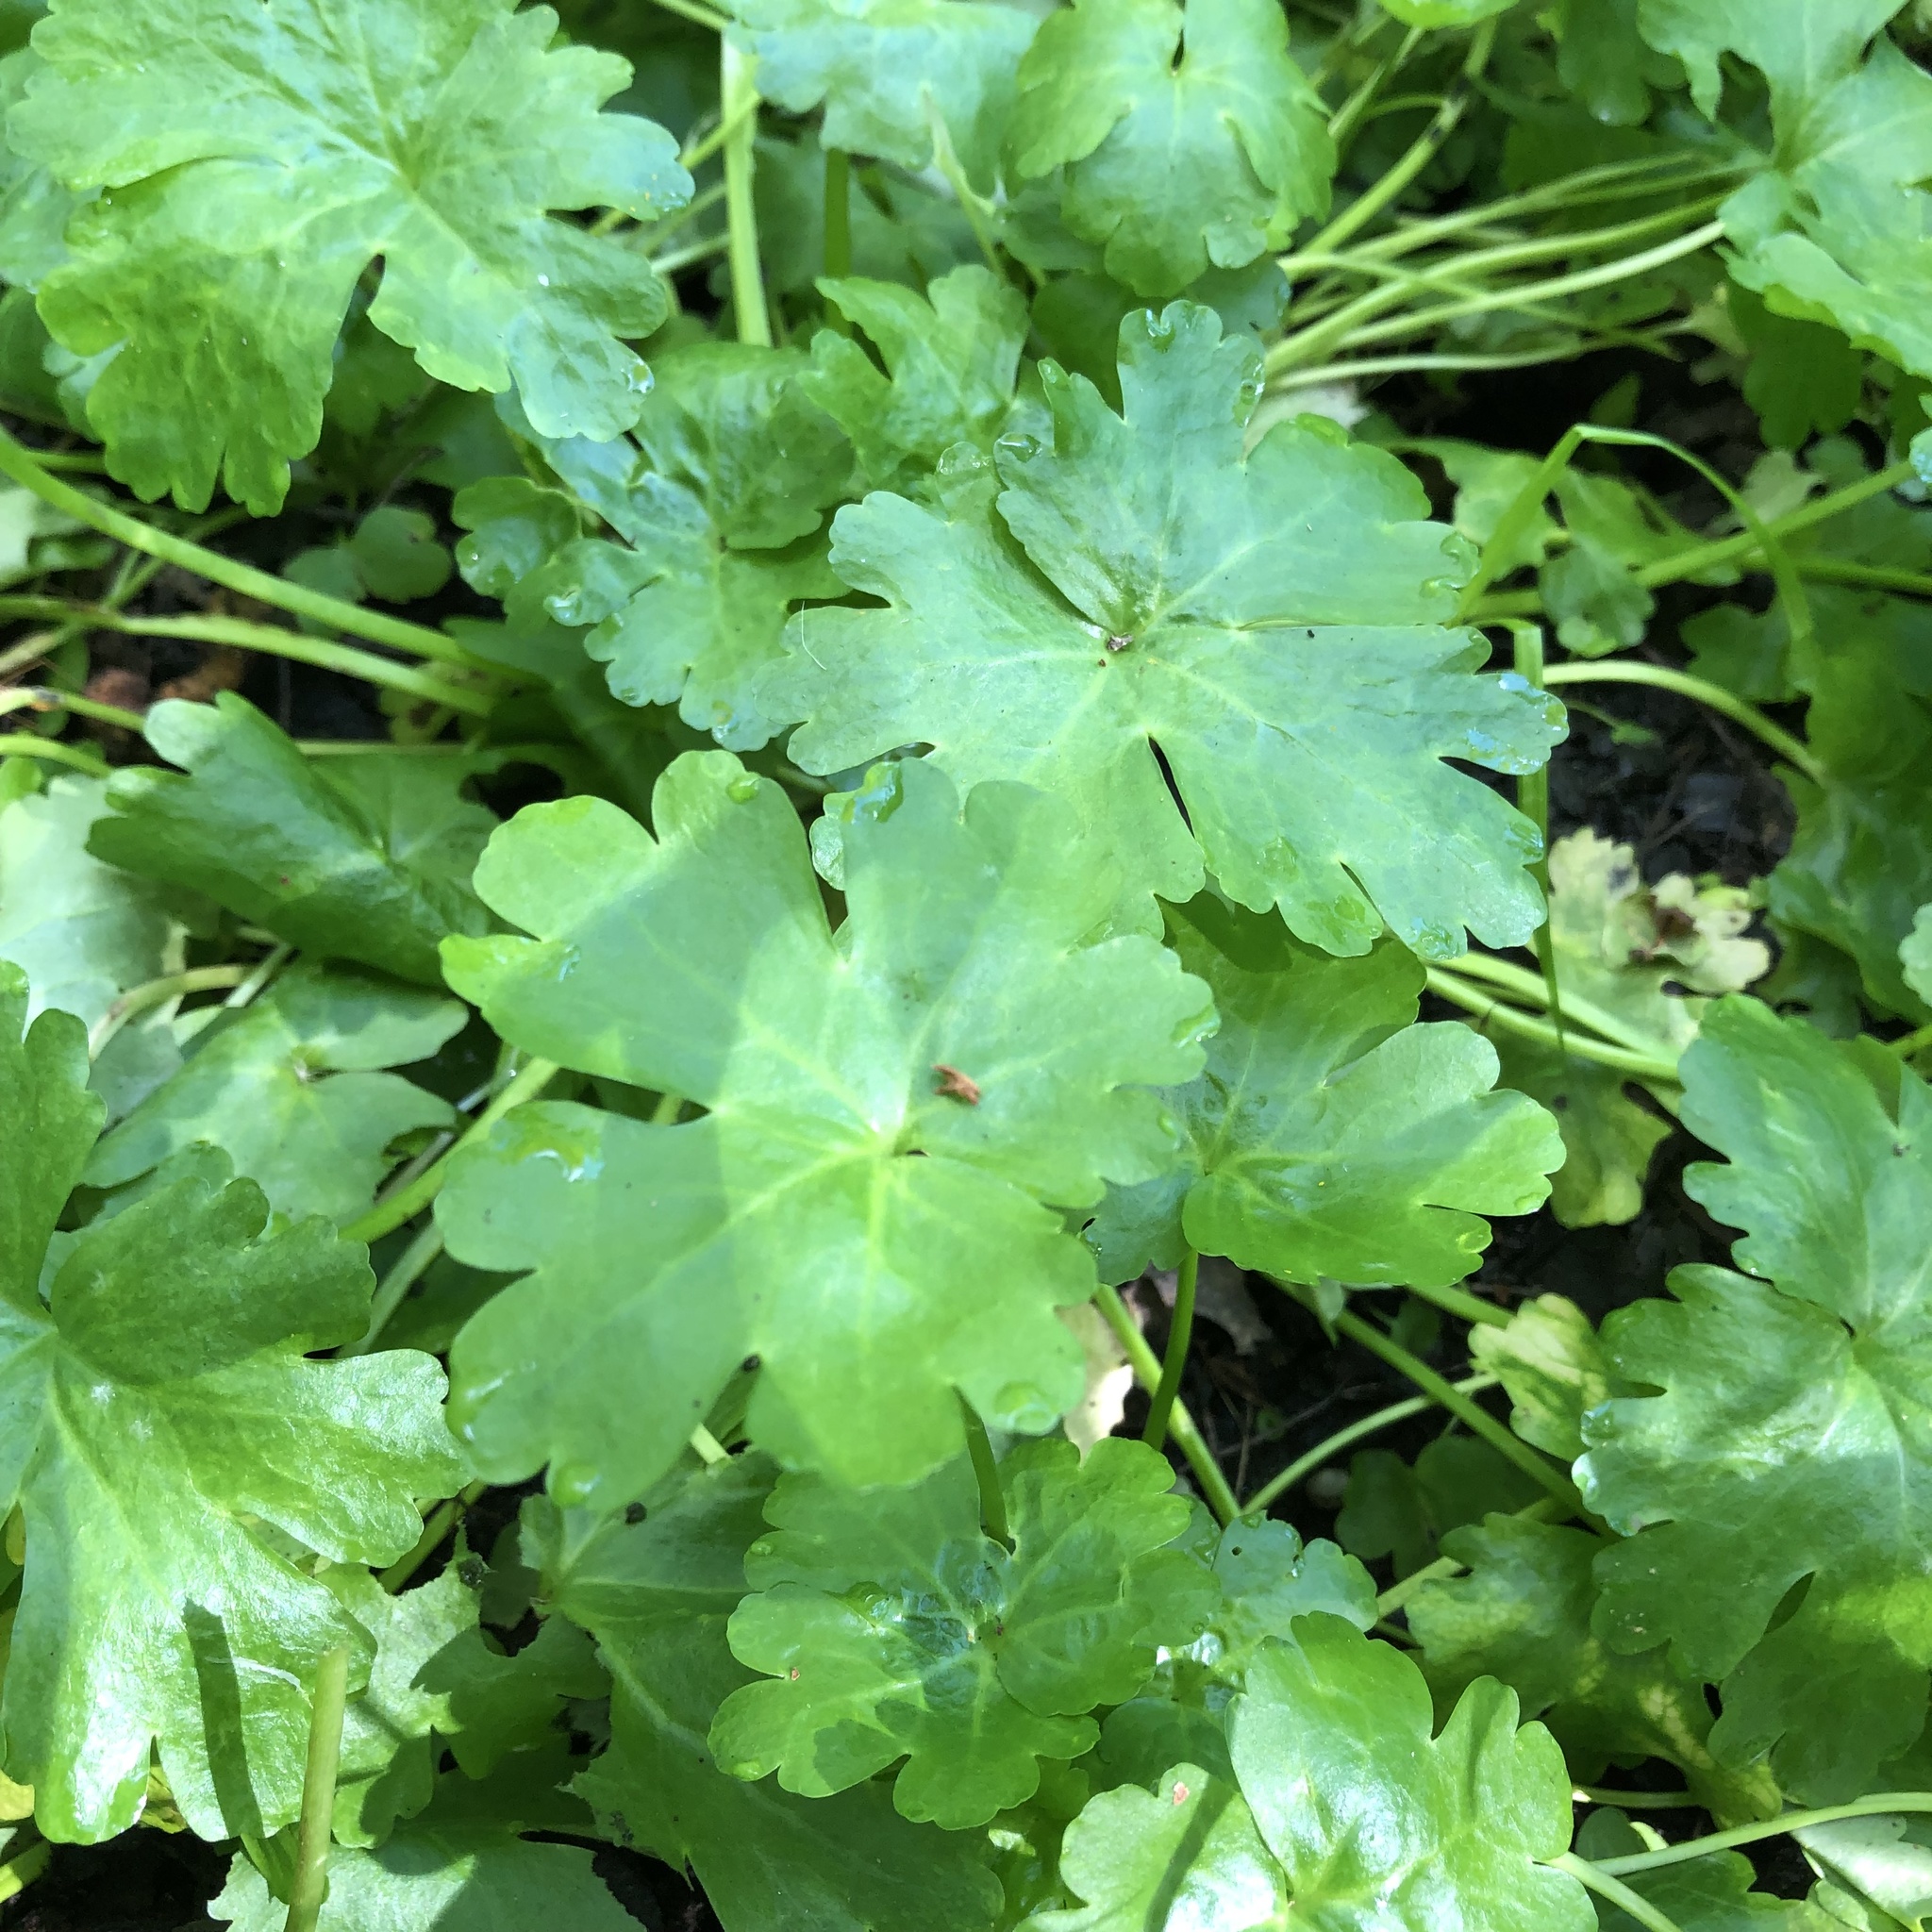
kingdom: Plantae
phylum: Tracheophyta
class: Magnoliopsida
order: Ranunculales
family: Ranunculaceae
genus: Ranunculus
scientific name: Ranunculus sceleratus
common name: Celery-leaved buttercup
